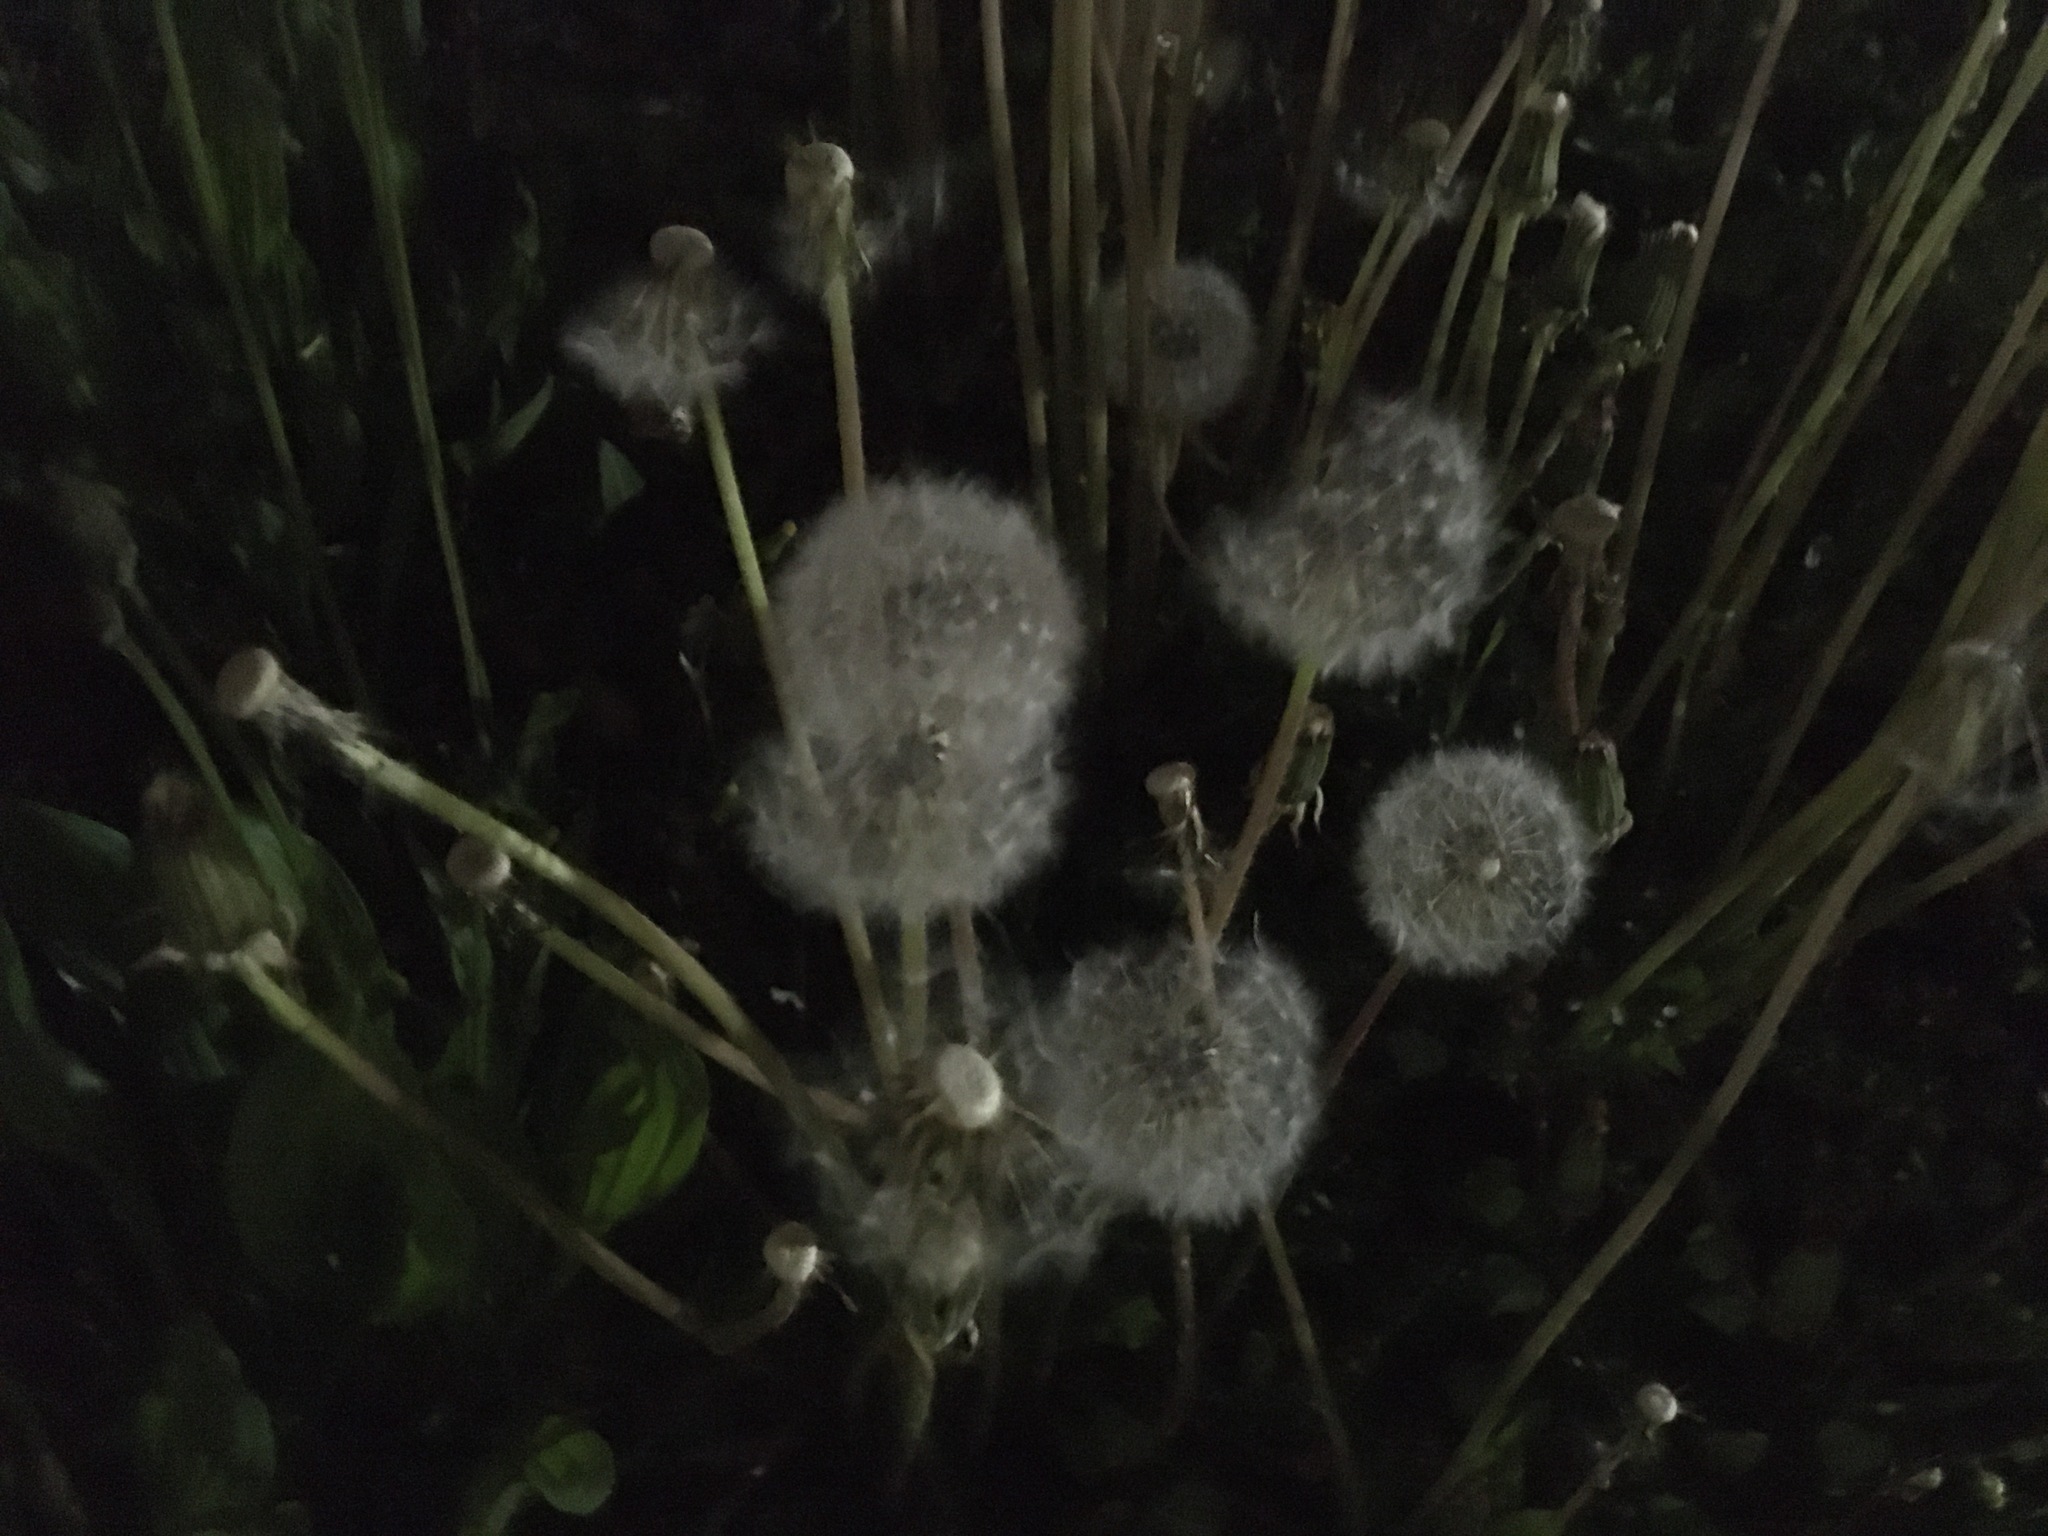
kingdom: Plantae
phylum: Tracheophyta
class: Magnoliopsida
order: Asterales
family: Asteraceae
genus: Taraxacum
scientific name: Taraxacum officinale
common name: Common dandelion
